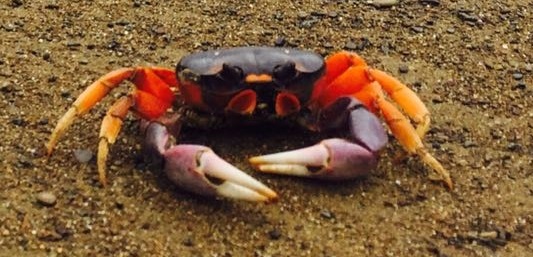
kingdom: Animalia
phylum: Arthropoda
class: Malacostraca
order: Decapoda
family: Gecarcinidae
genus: Gecarcinus
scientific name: Gecarcinus quadratus
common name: Halloween crab
